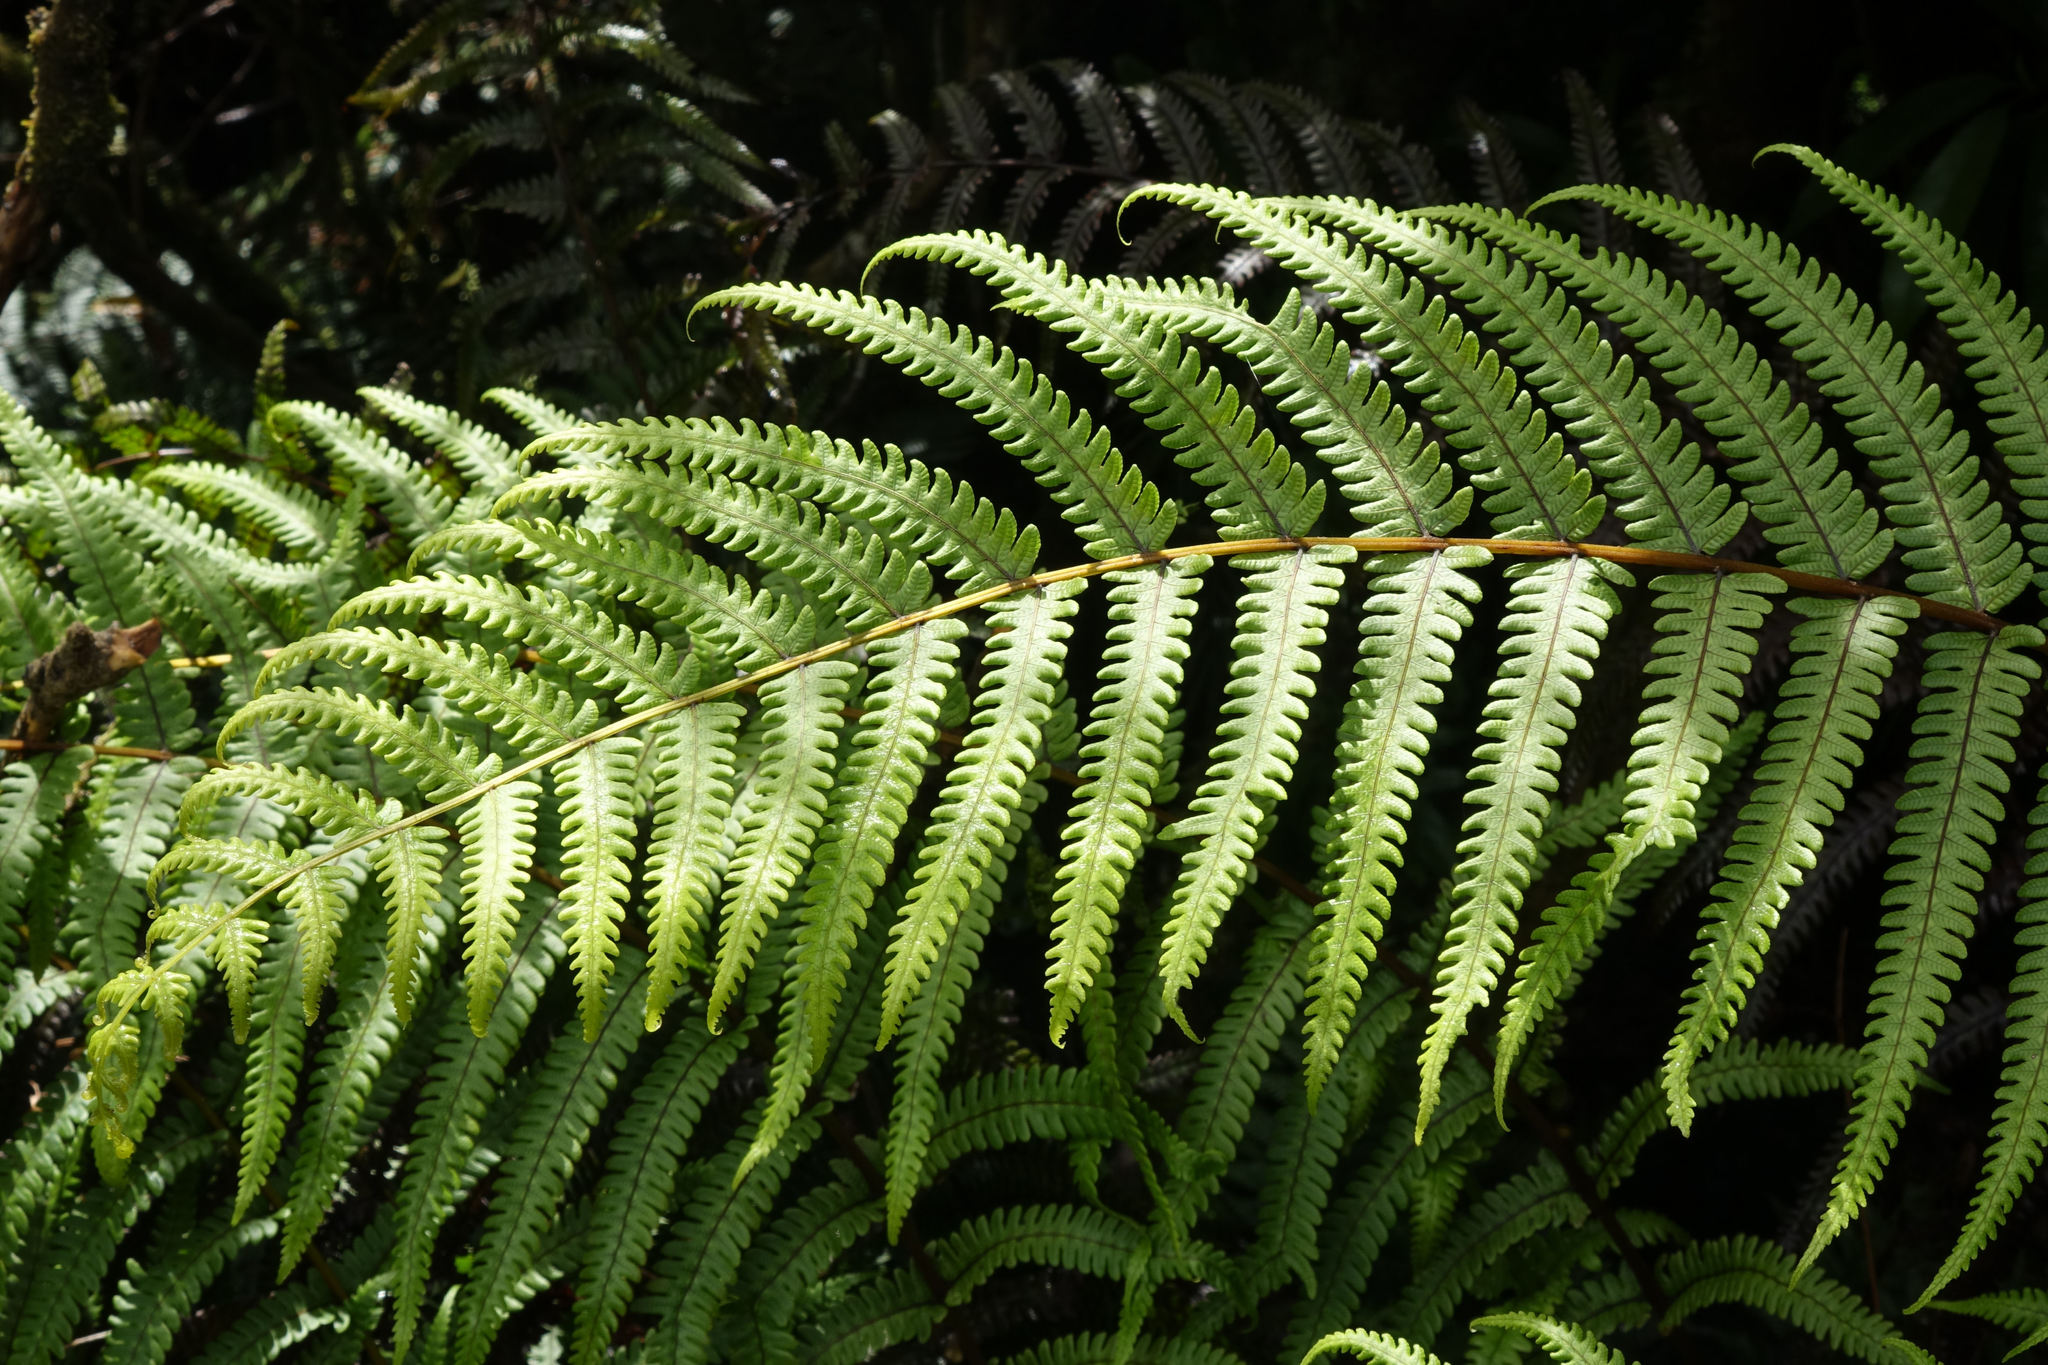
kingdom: Plantae
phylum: Tracheophyta
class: Polypodiopsida
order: Polypodiales
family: Thelypteridaceae
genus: Pakau
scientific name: Pakau pennigera
